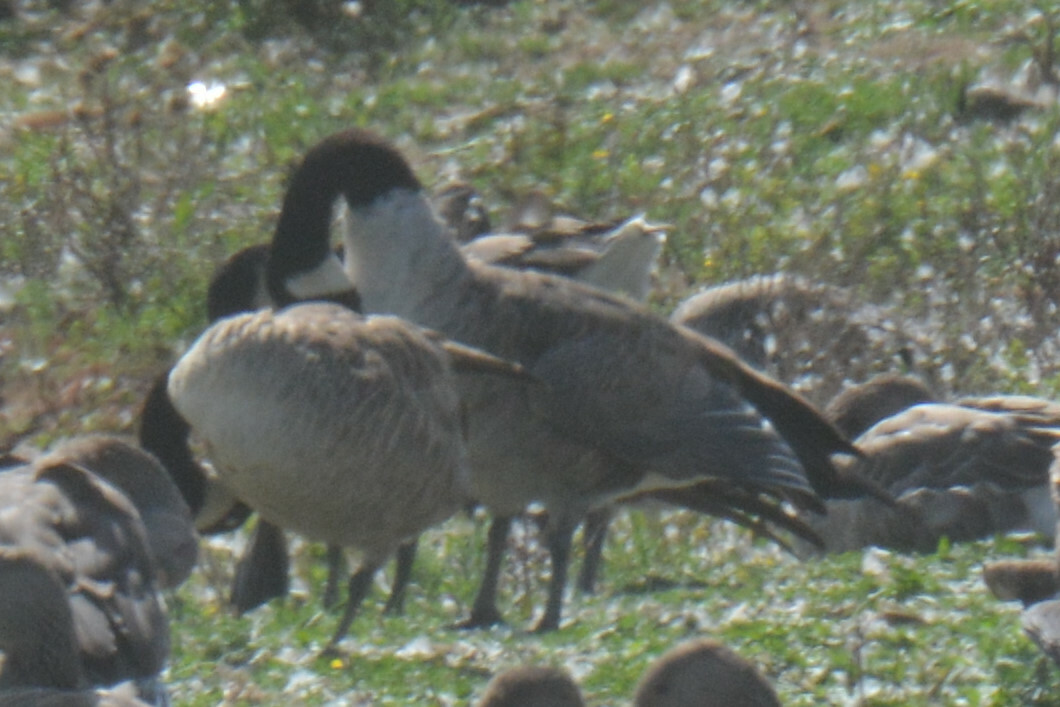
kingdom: Animalia
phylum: Chordata
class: Aves
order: Anseriformes
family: Anatidae
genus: Branta
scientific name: Branta canadensis
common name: Canada goose
